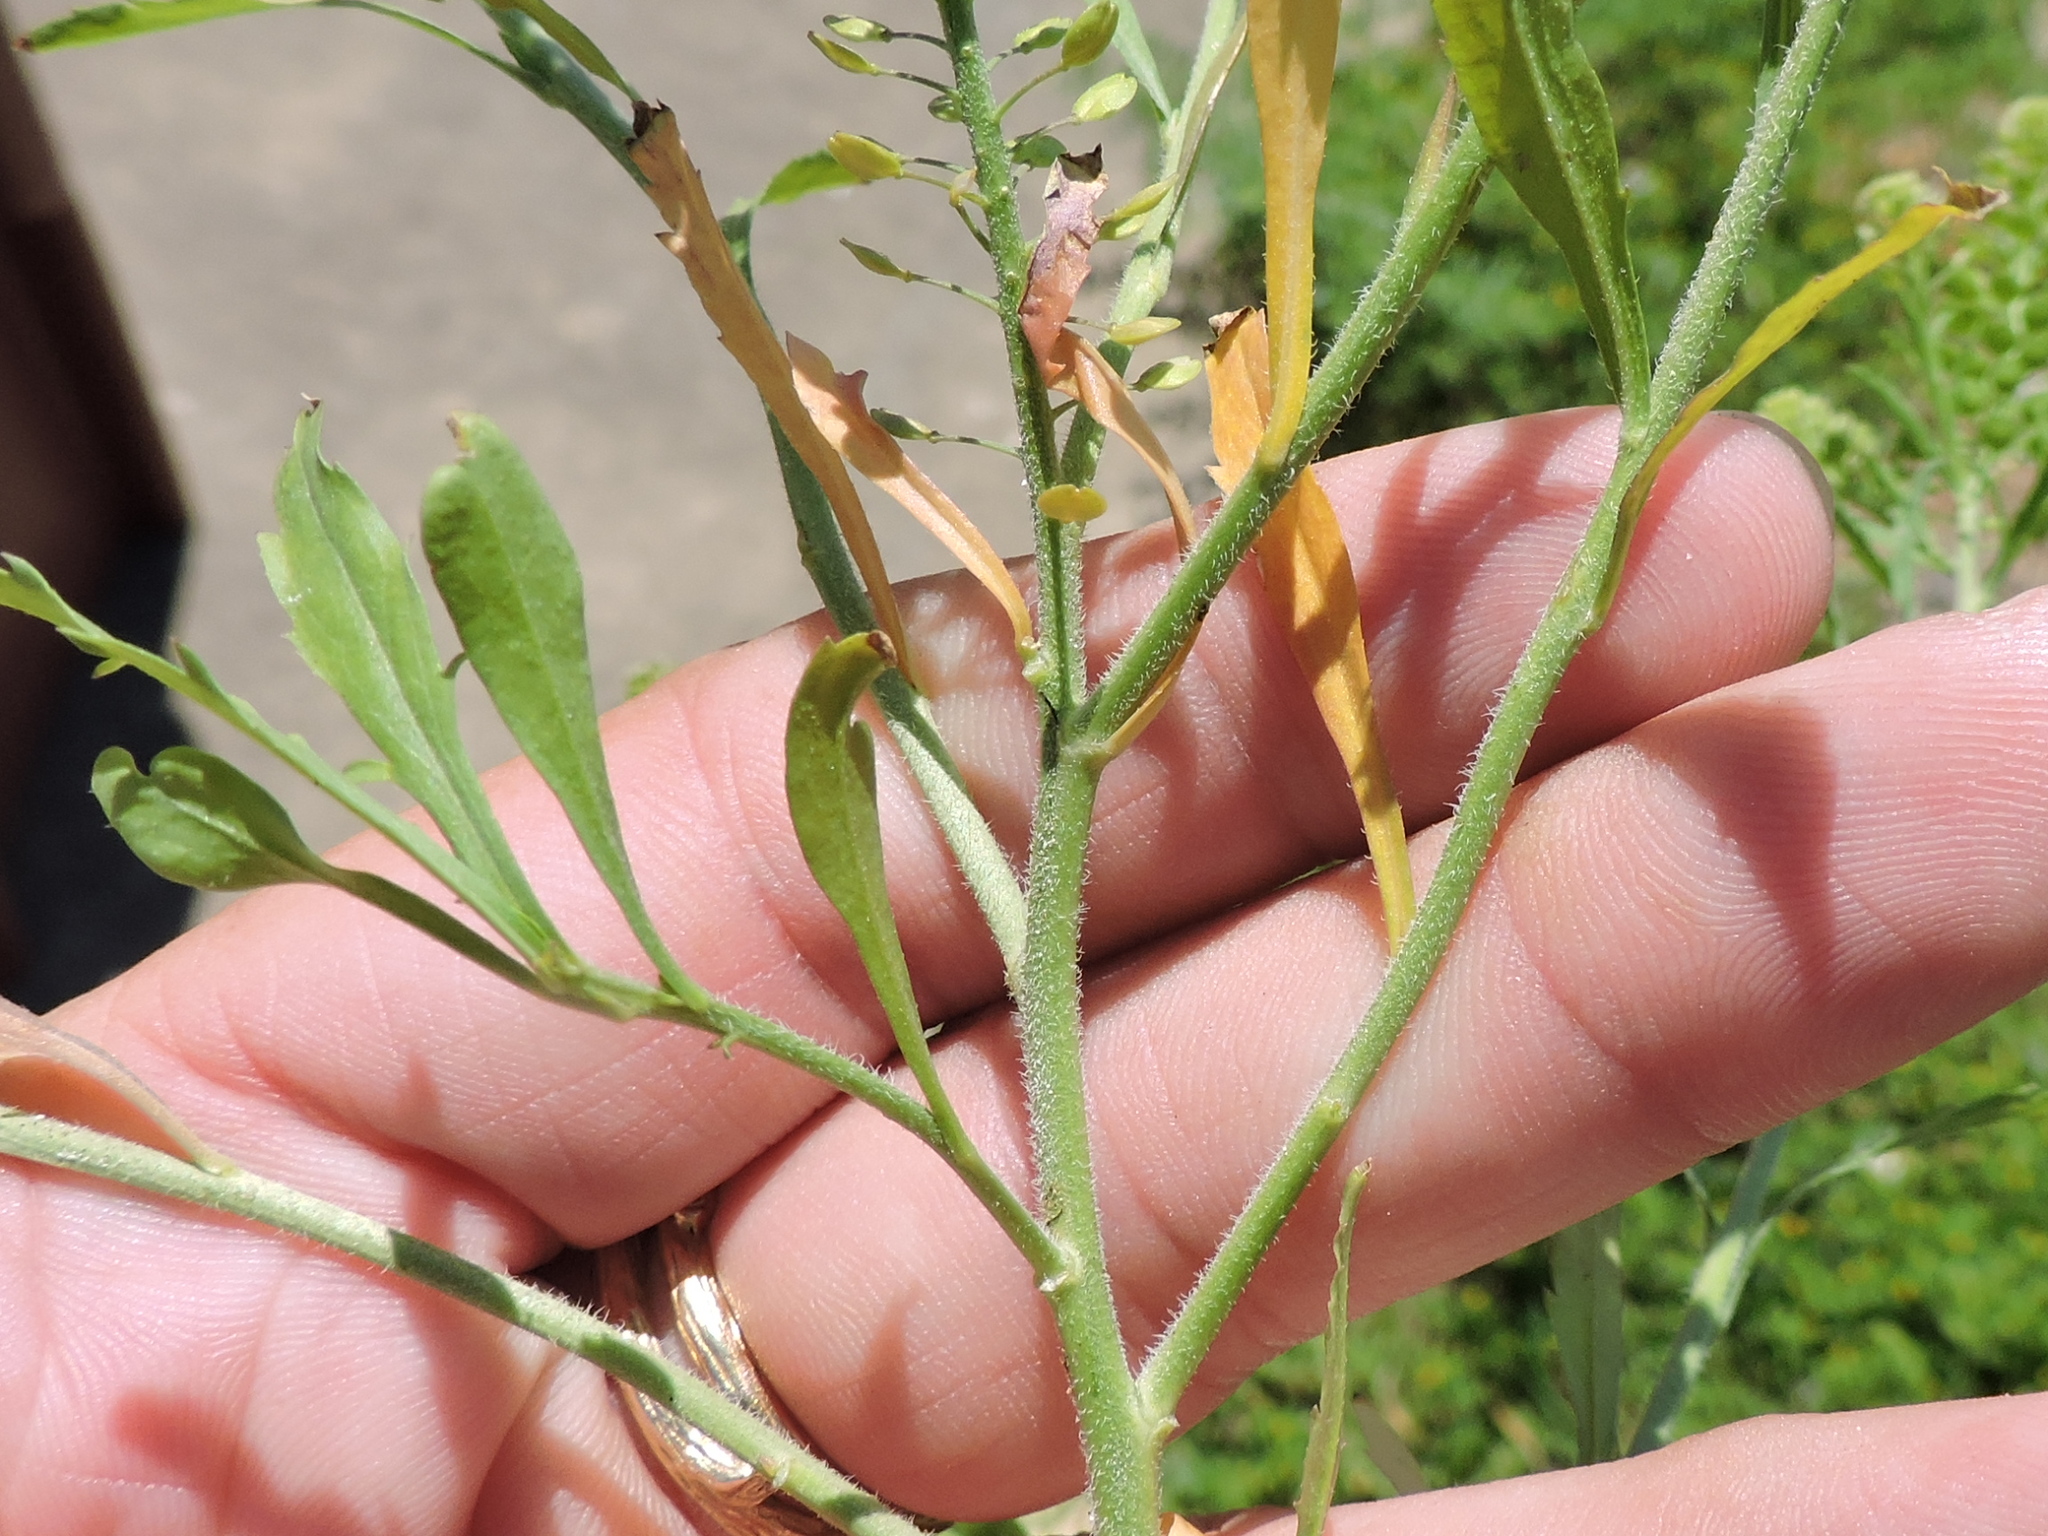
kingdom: Plantae
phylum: Tracheophyta
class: Magnoliopsida
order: Brassicales
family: Brassicaceae
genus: Lepidium
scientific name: Lepidium austrinum
